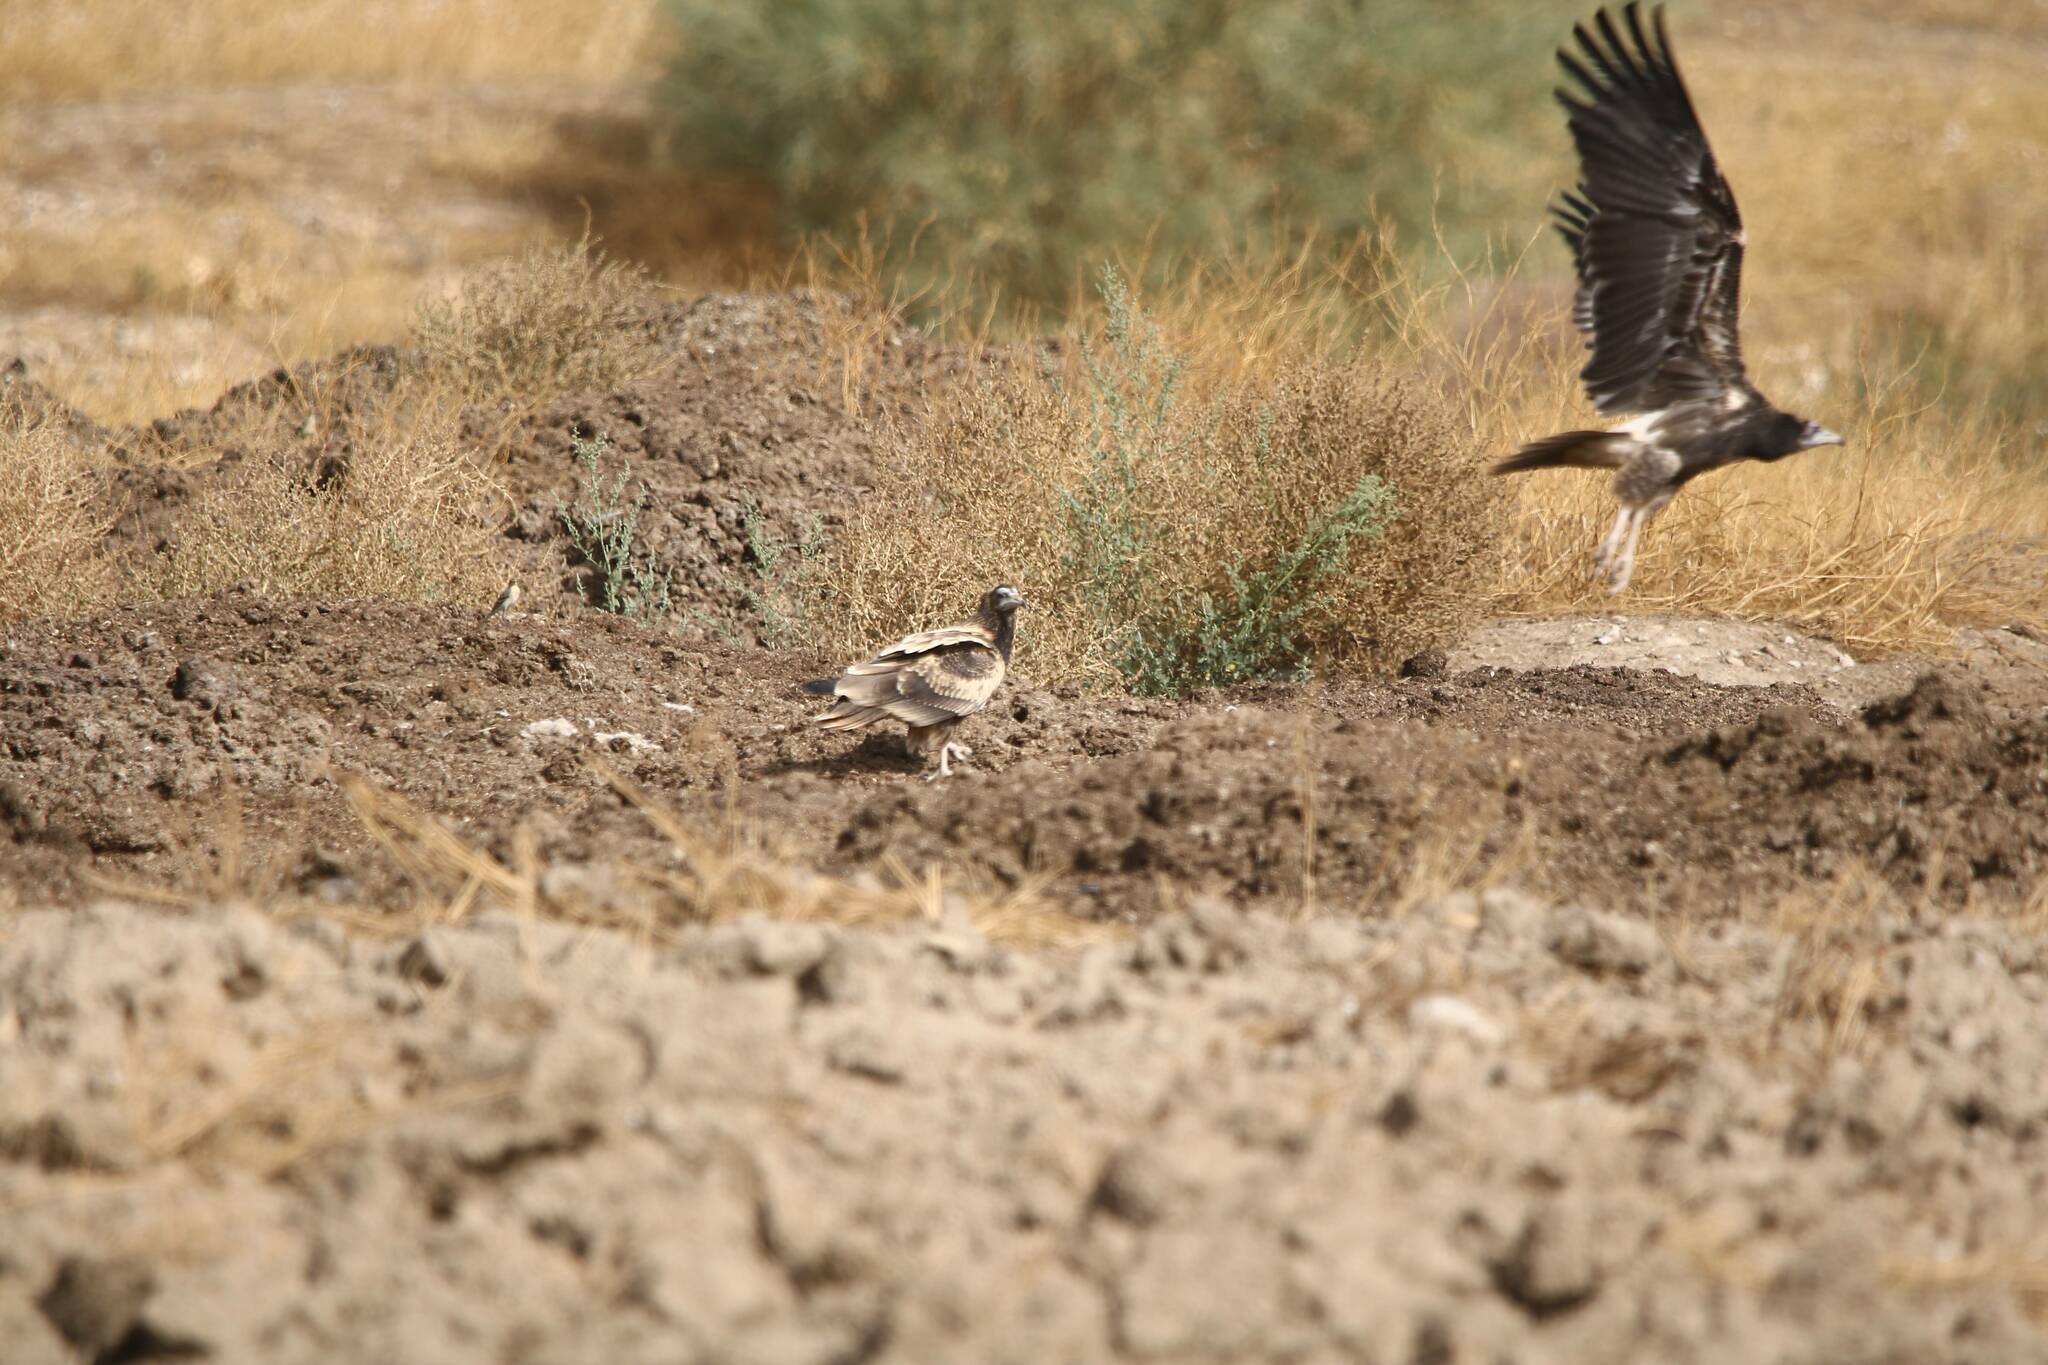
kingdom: Animalia
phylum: Chordata
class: Aves
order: Accipitriformes
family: Accipitridae
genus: Neophron
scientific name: Neophron percnopterus
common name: Egyptian vulture
